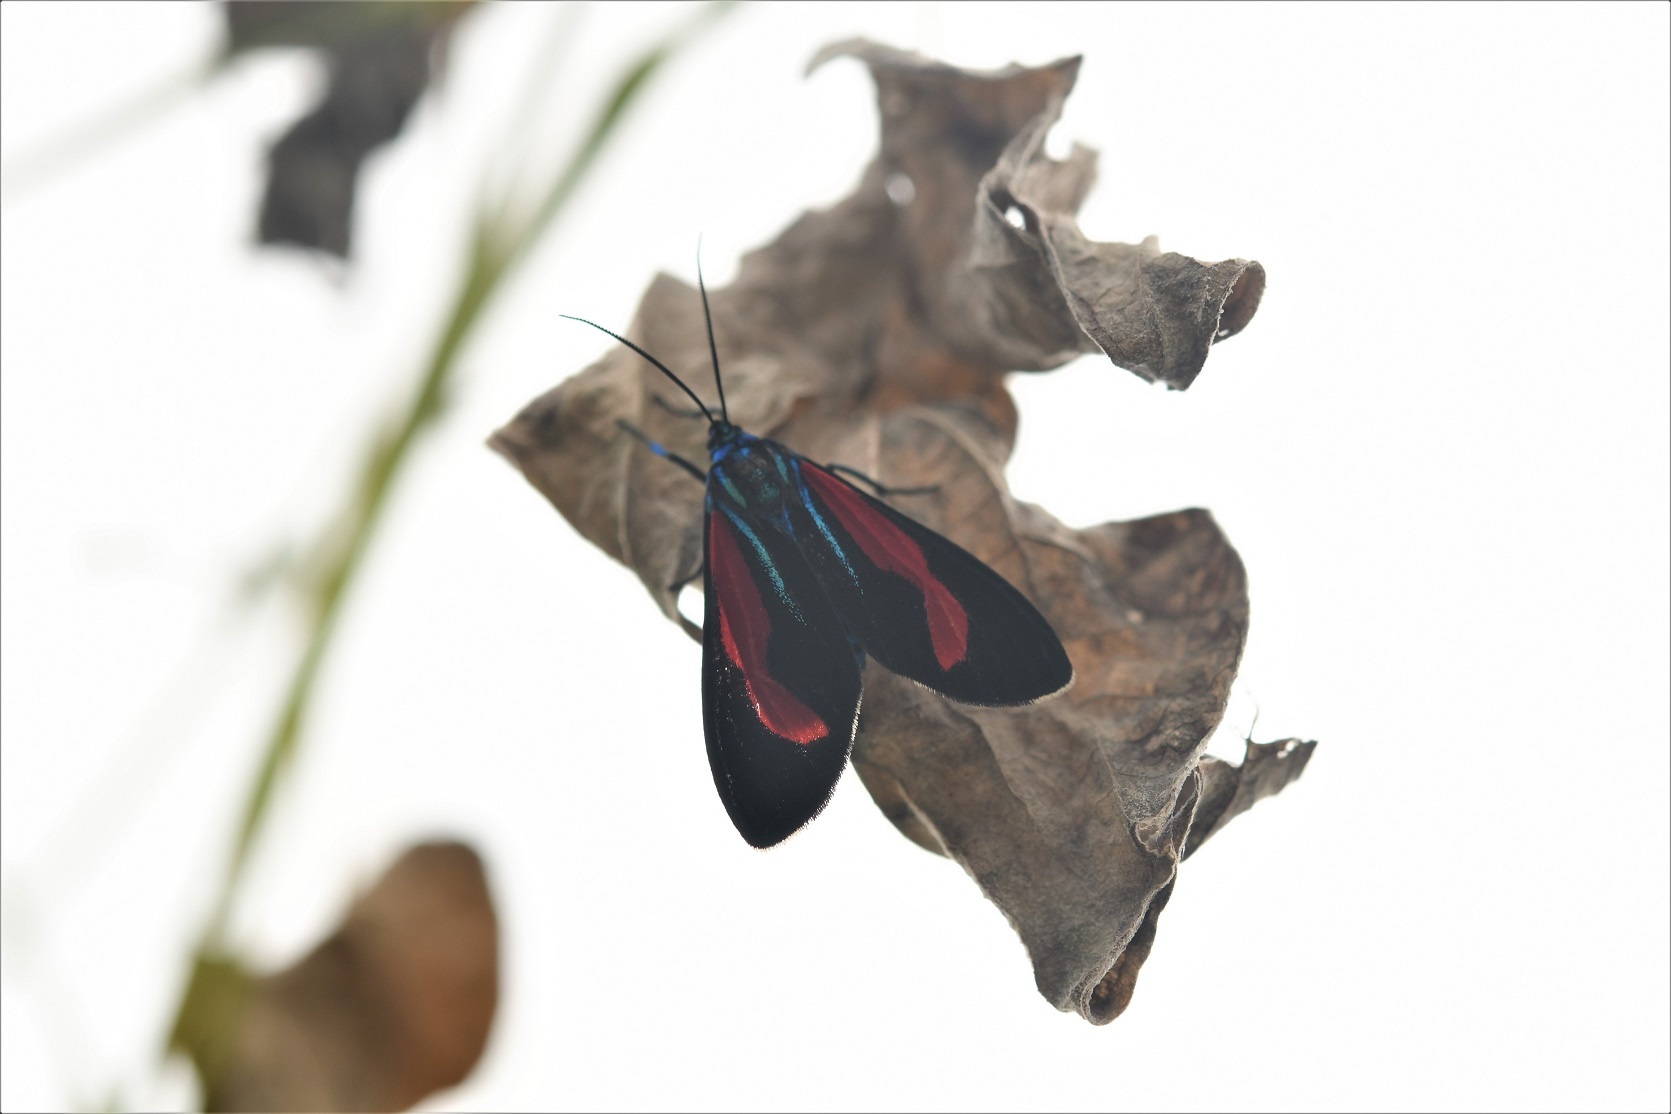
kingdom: Animalia
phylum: Arthropoda
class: Insecta
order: Lepidoptera
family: Erebidae
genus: Cyanopepla
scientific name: Cyanopepla bella
